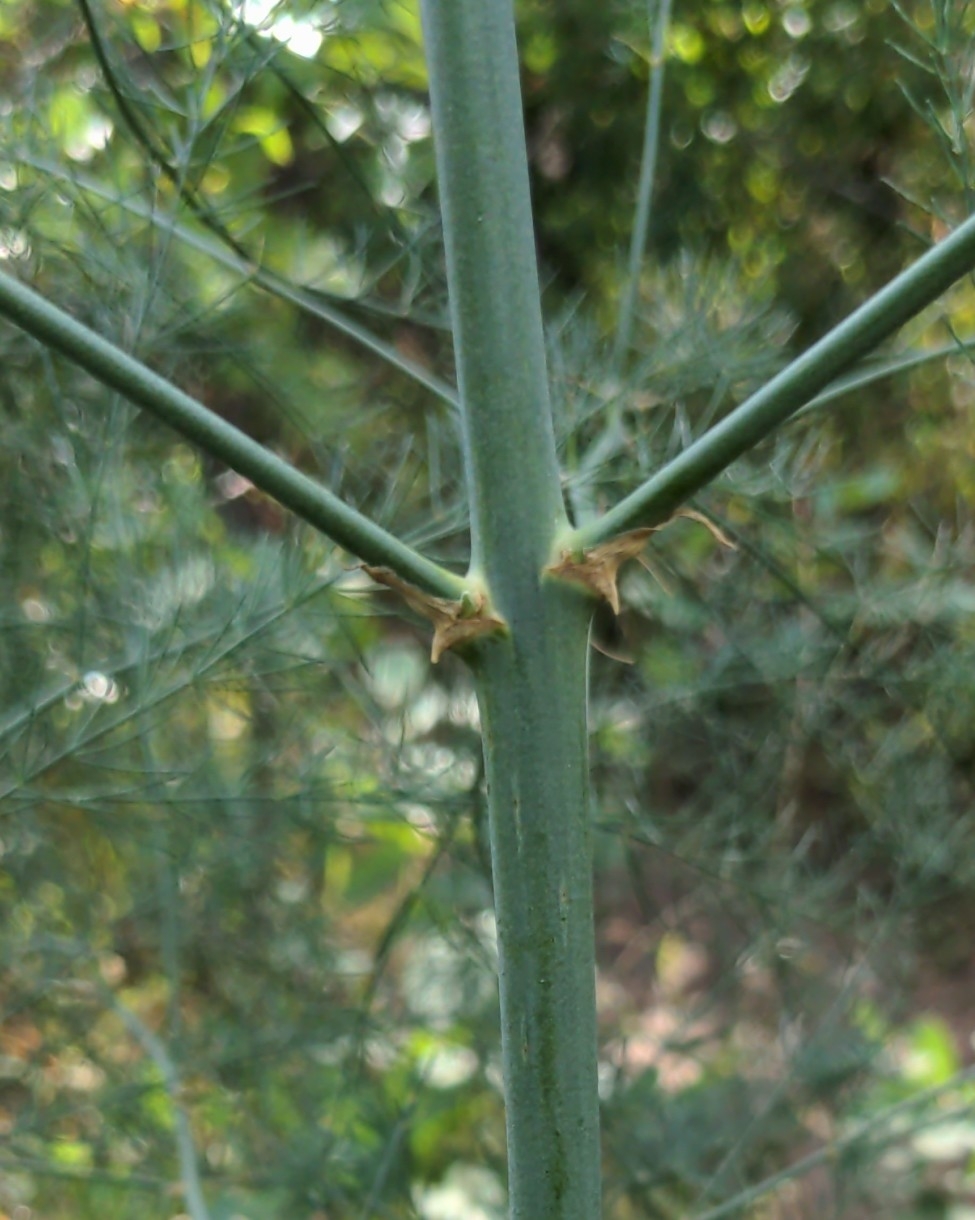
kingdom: Plantae
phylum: Tracheophyta
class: Liliopsida
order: Asparagales
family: Asparagaceae
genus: Asparagus
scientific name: Asparagus officinalis
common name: Garden asparagus
